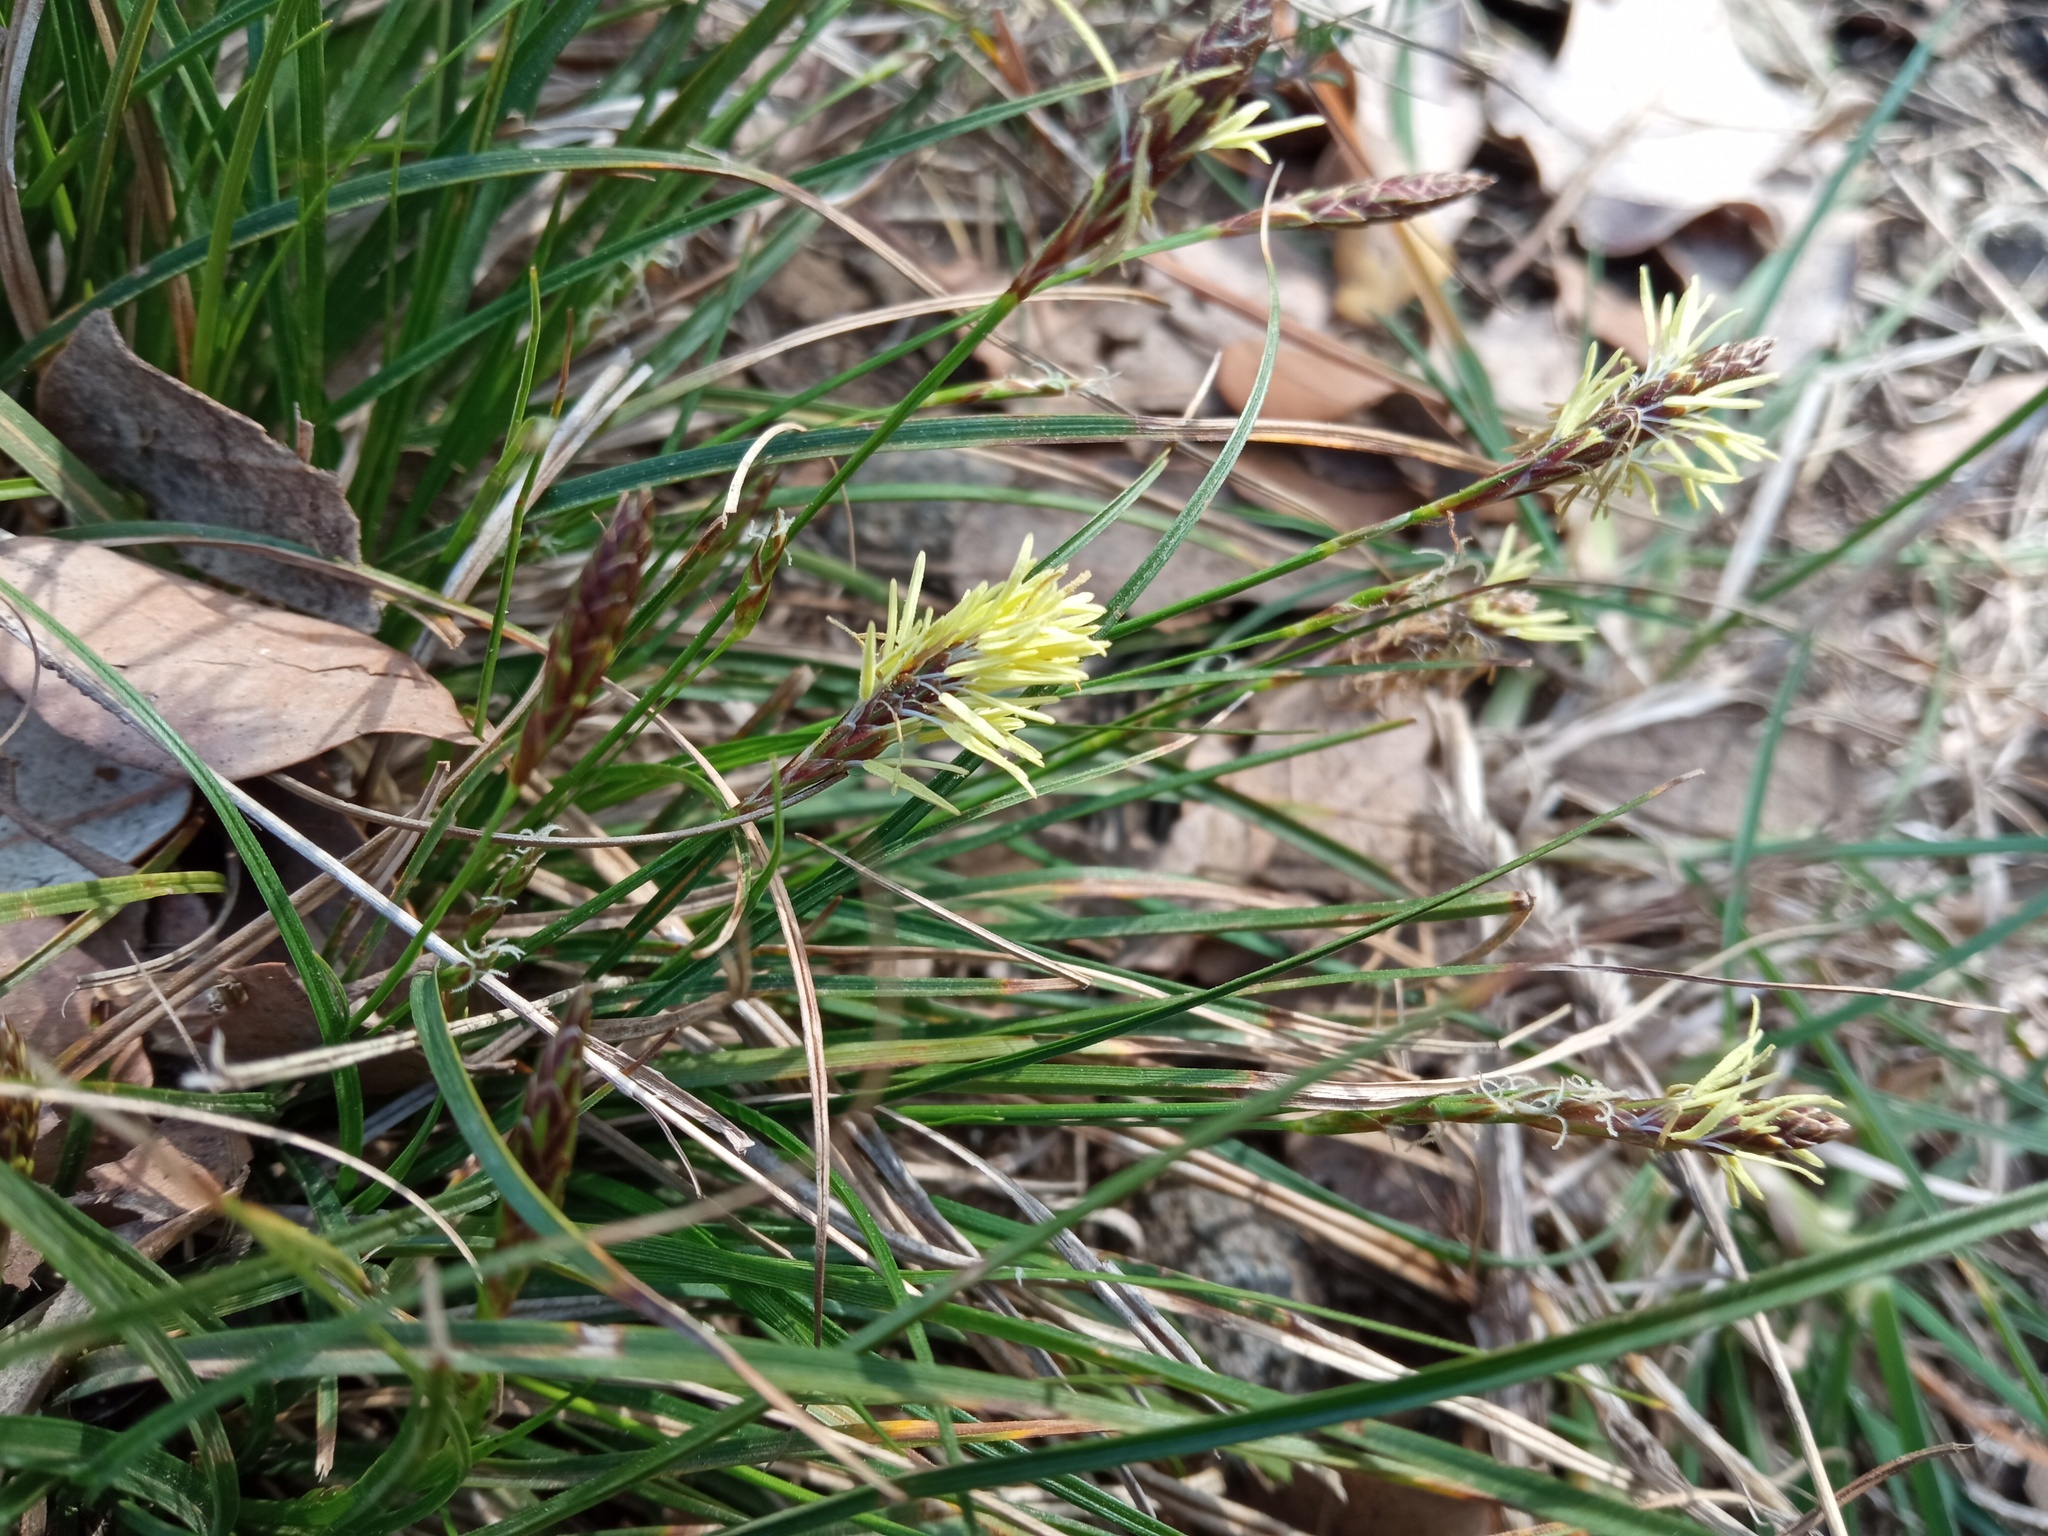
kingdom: Plantae
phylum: Tracheophyta
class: Liliopsida
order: Poales
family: Cyperaceae
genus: Carex
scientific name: Carex halleriana
